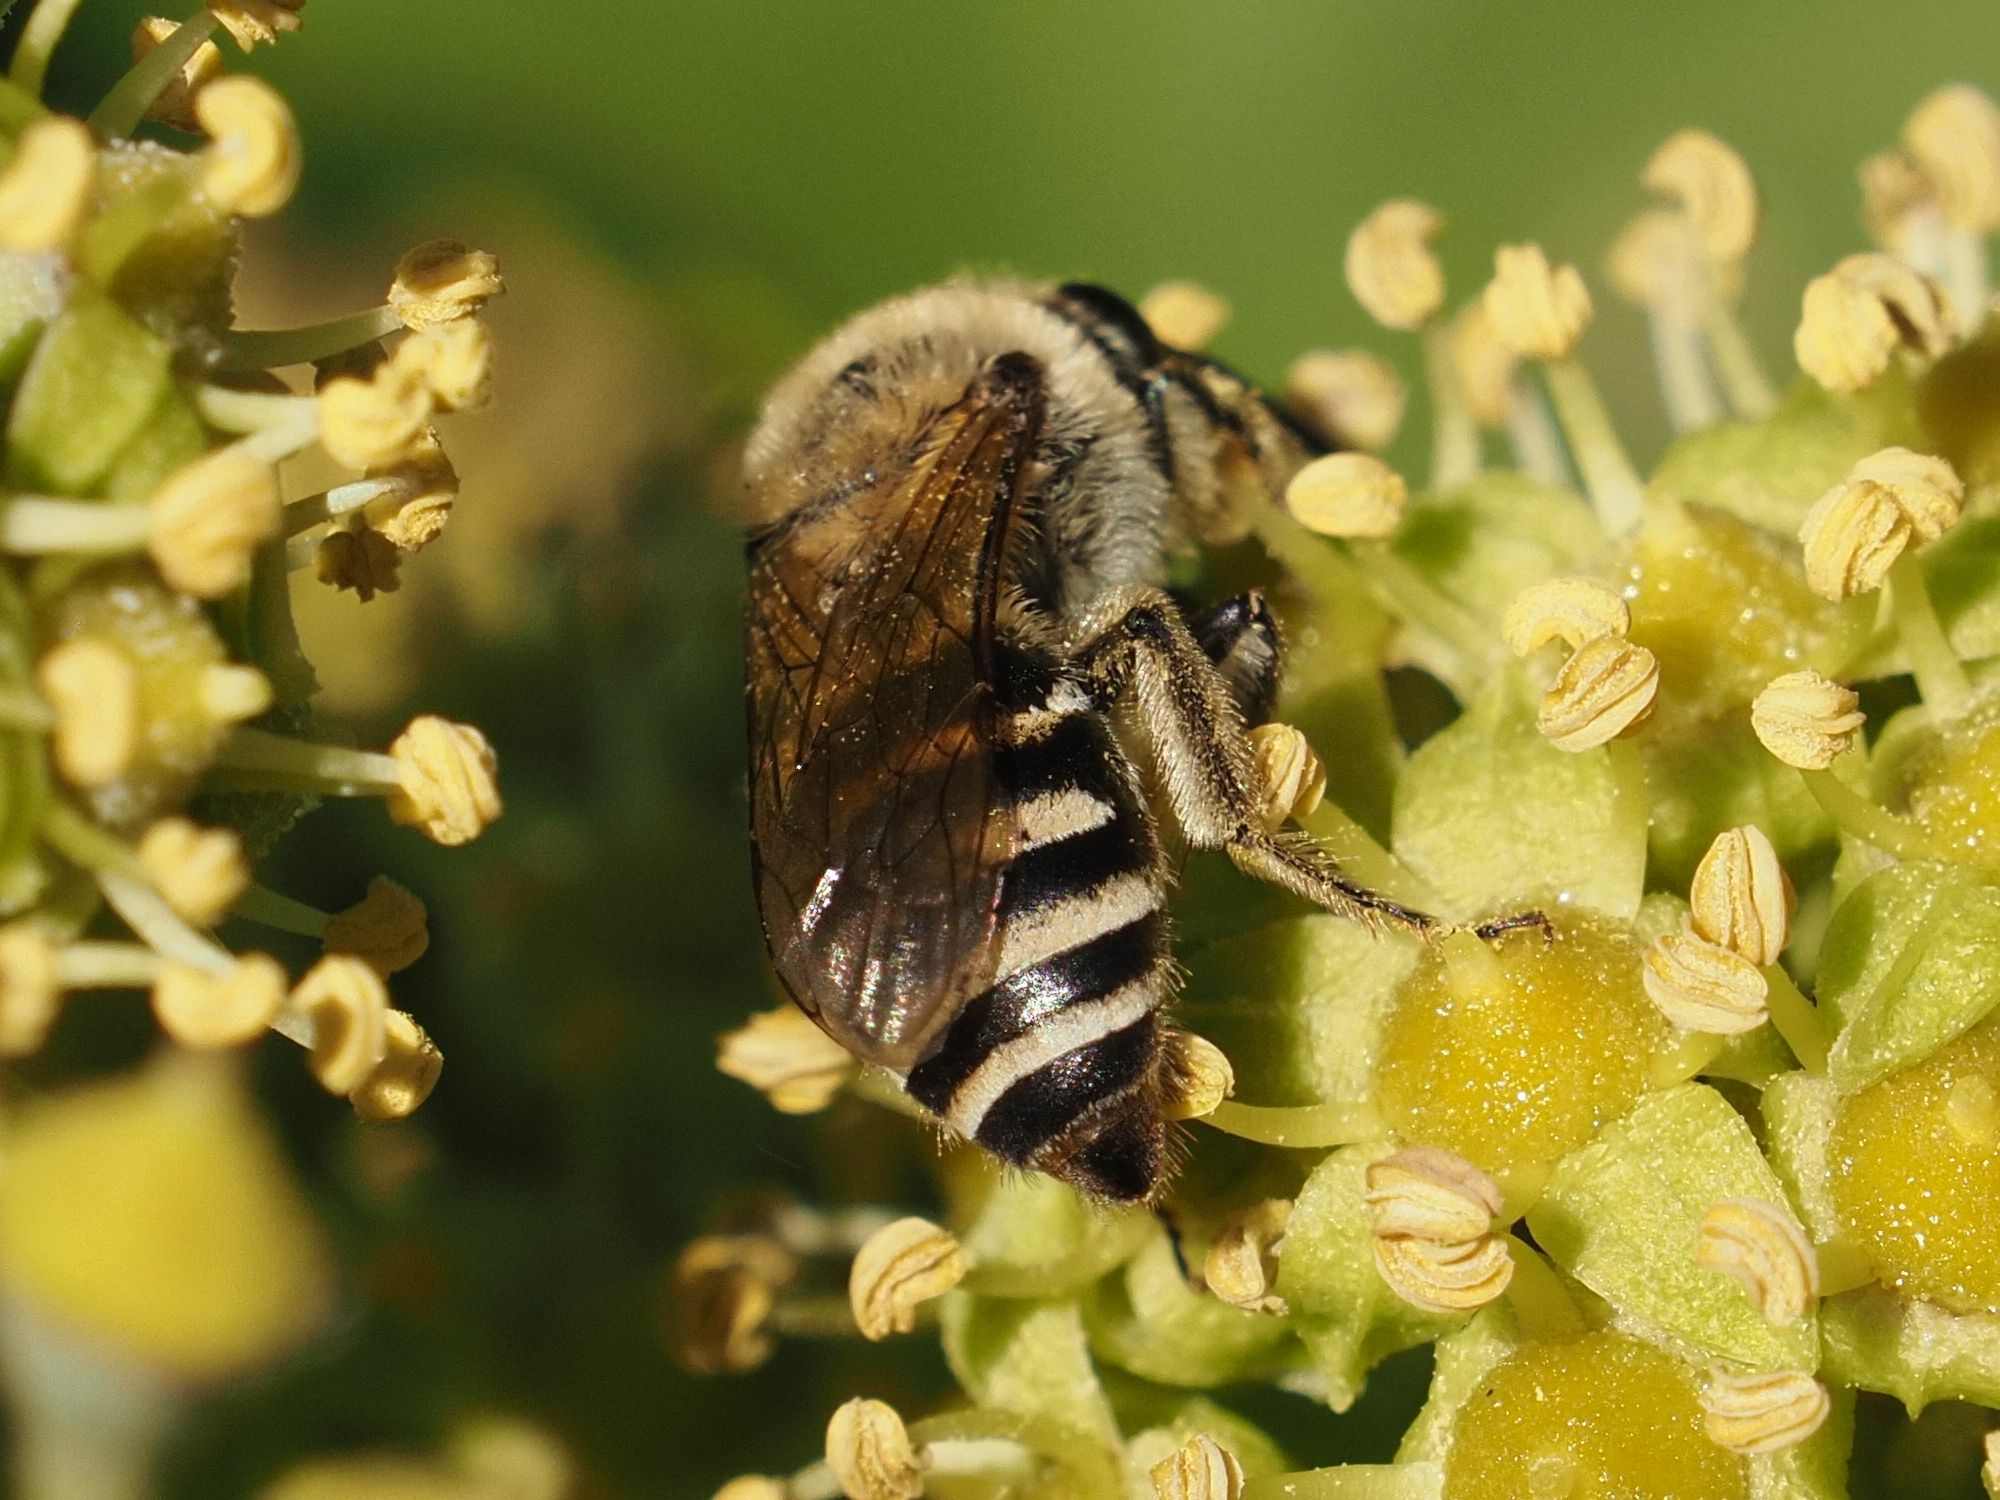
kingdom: Animalia
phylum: Arthropoda
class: Insecta
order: Hymenoptera
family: Colletidae
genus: Colletes
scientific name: Colletes hederae
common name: Ivy bee
